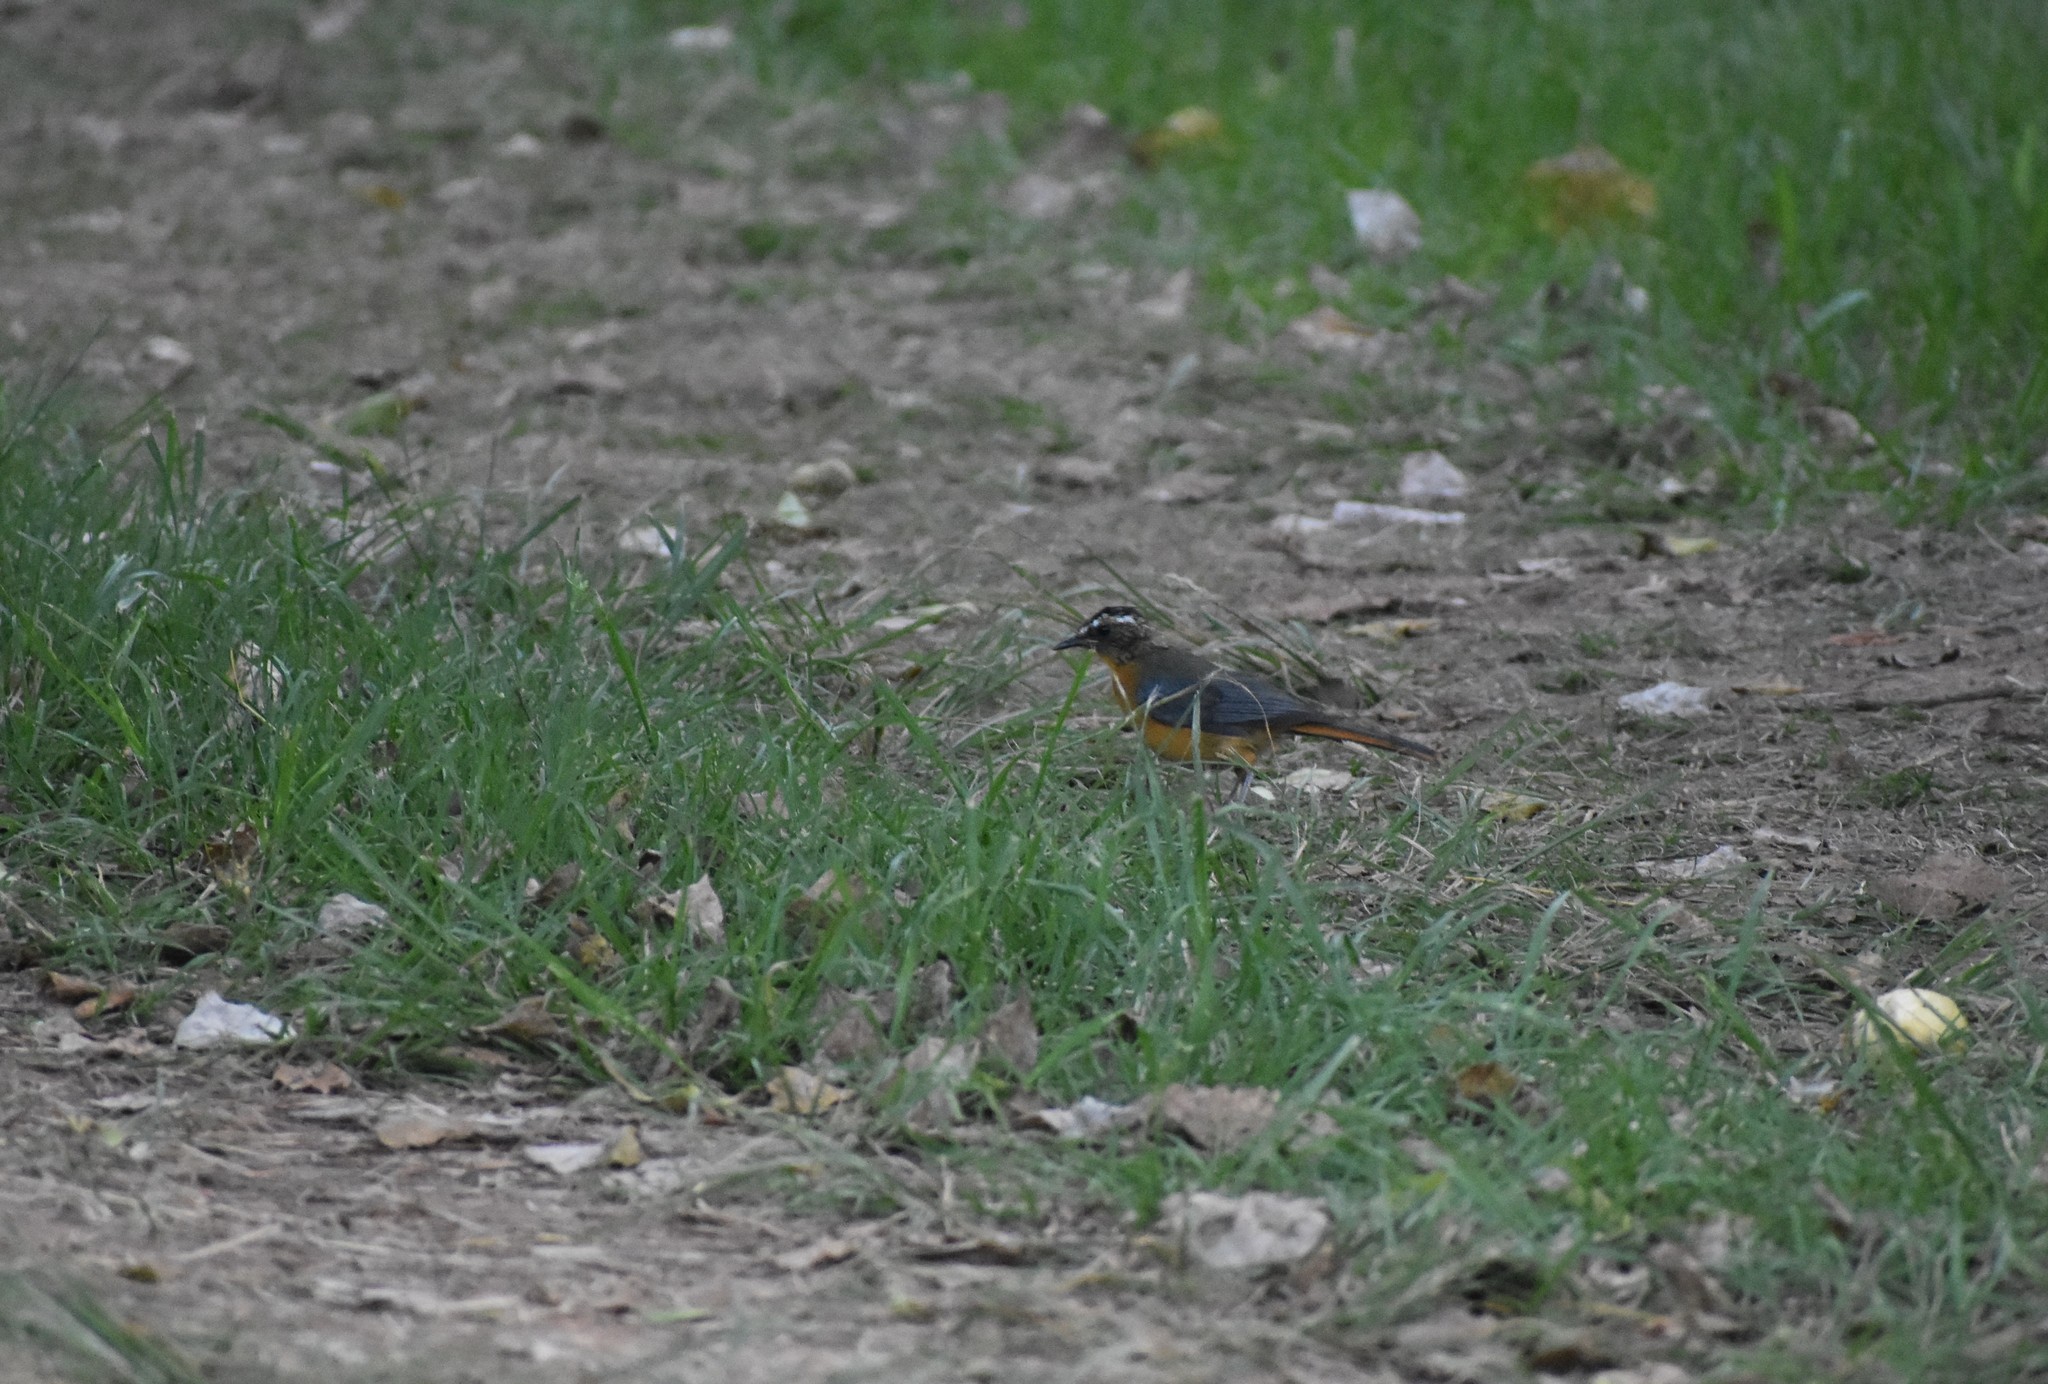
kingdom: Animalia
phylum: Chordata
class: Aves
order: Passeriformes
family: Muscicapidae
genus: Cossypha
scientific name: Cossypha heuglini
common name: White-browed robin-chat
